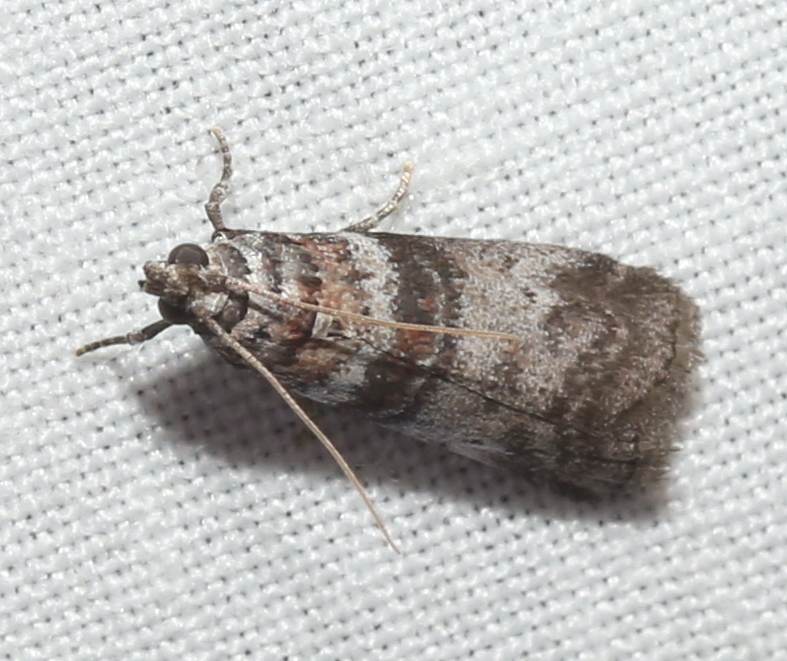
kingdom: Animalia
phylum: Arthropoda
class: Insecta
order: Lepidoptera
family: Pyralidae
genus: Sciota
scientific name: Sciota uvinella
